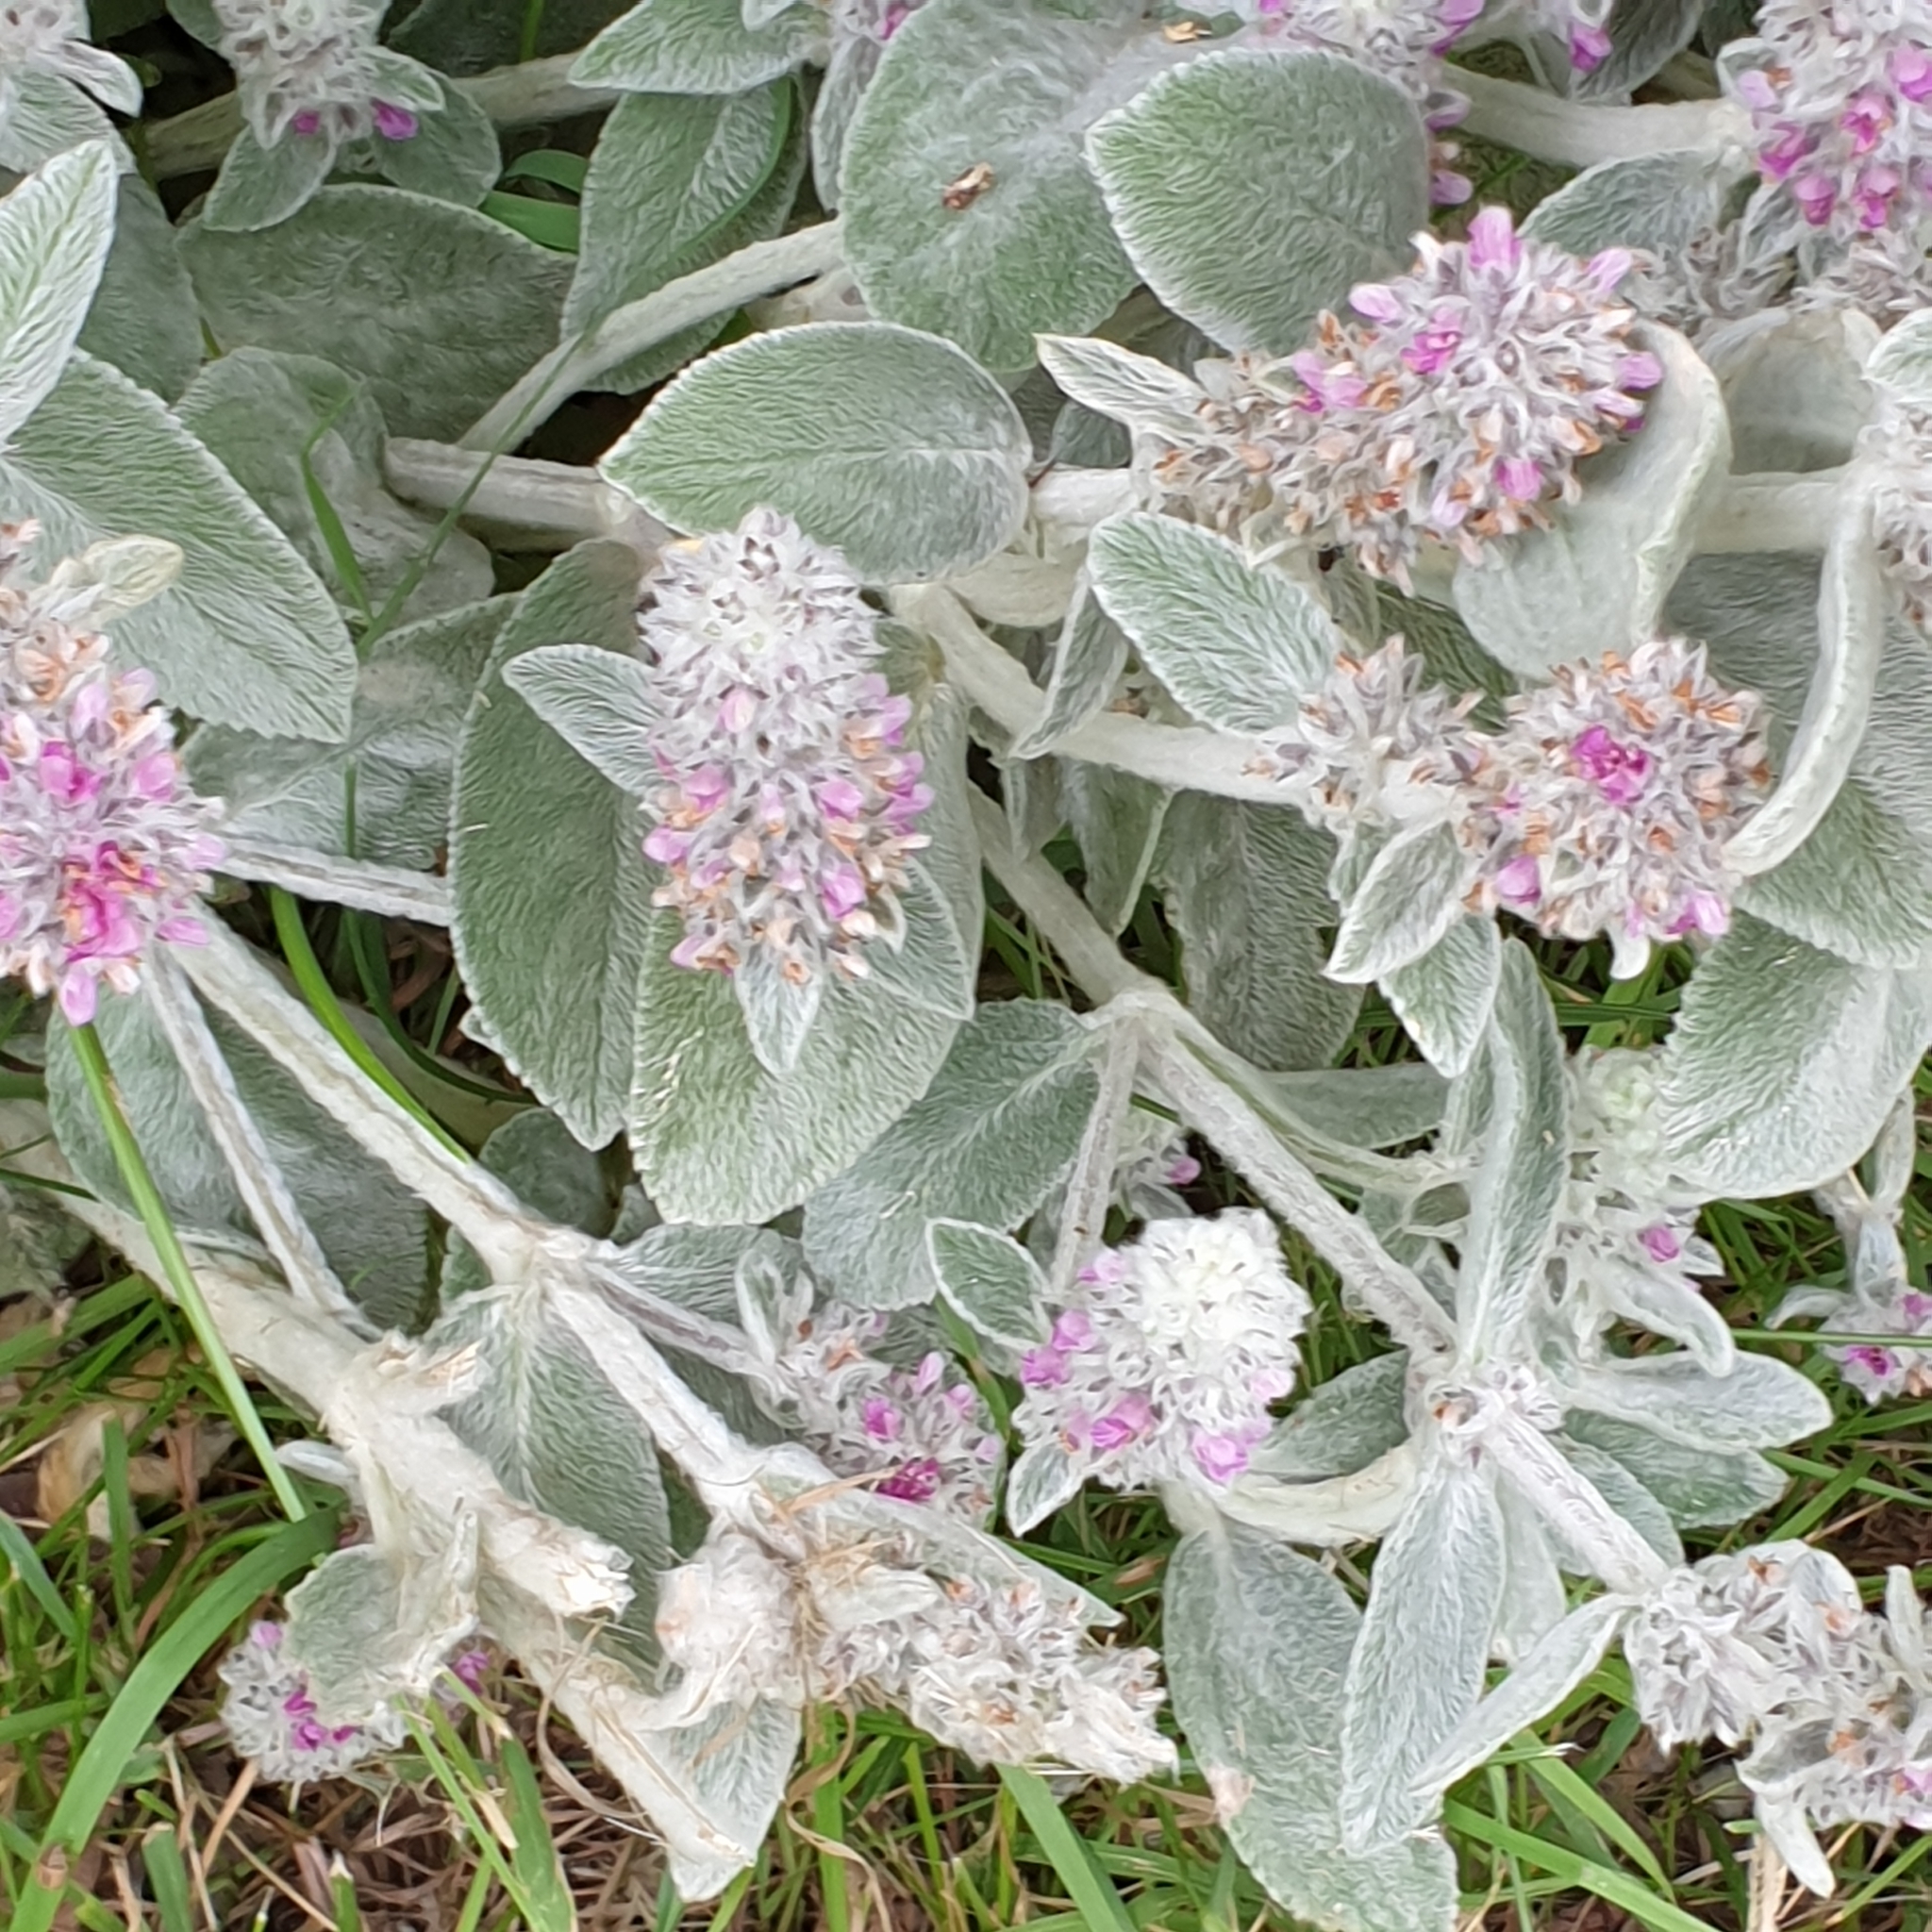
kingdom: Plantae
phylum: Tracheophyta
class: Magnoliopsida
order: Lamiales
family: Lamiaceae
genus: Stachys
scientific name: Stachys byzantina
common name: Lamb's-ear
